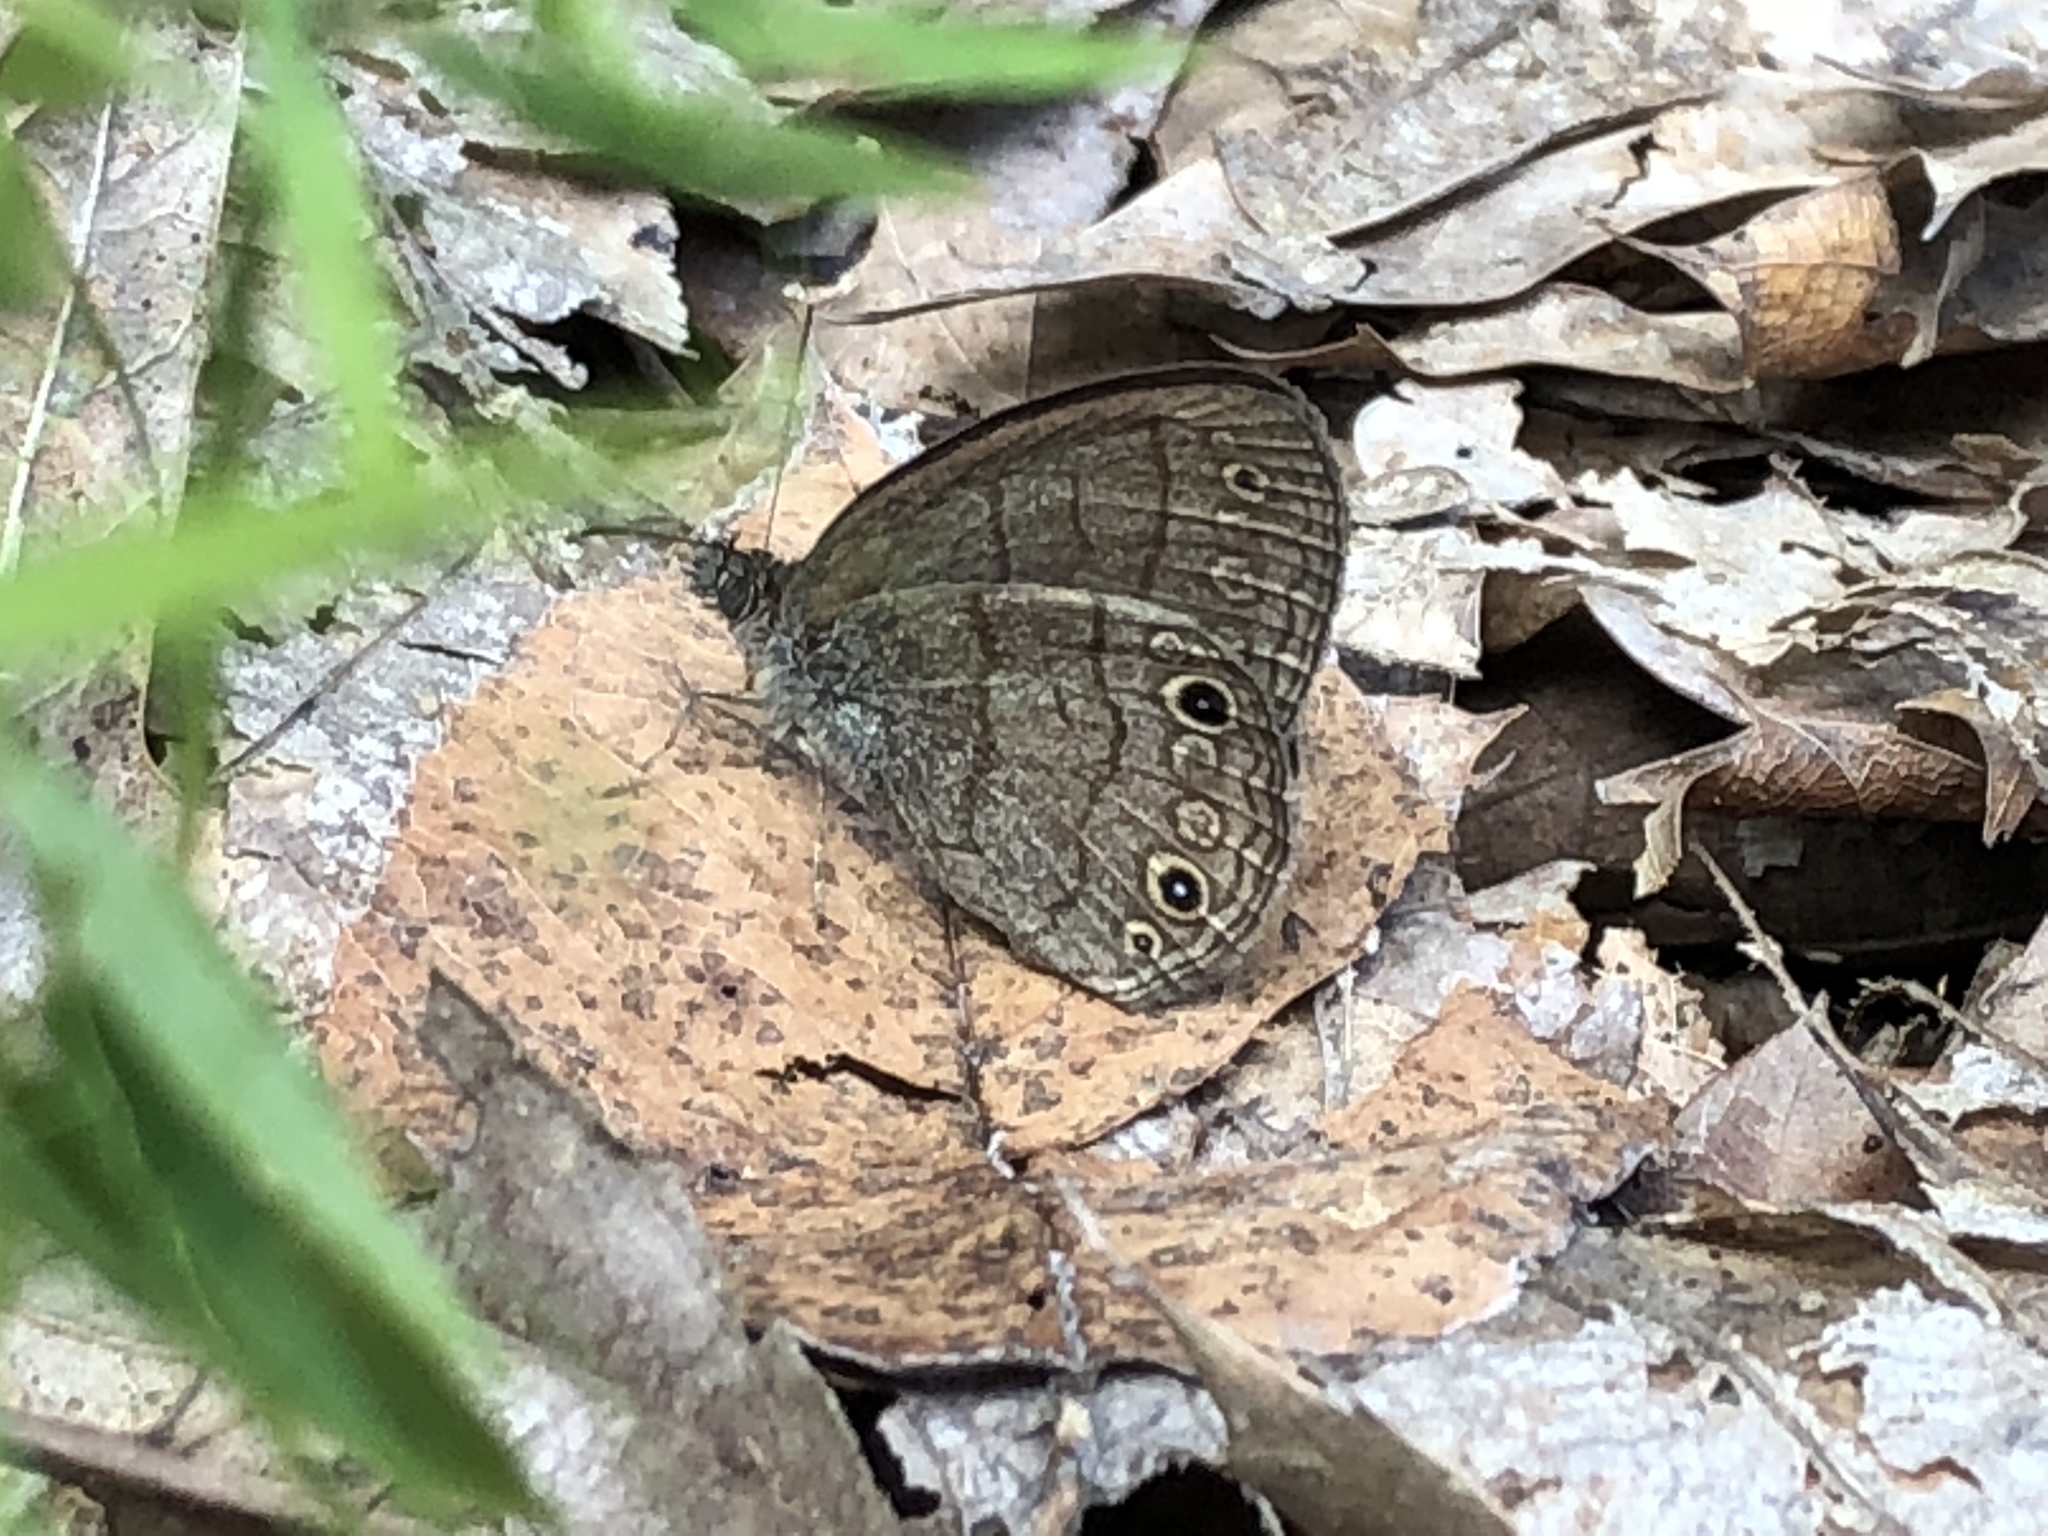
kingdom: Animalia
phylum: Arthropoda
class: Insecta
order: Lepidoptera
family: Nymphalidae
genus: Hermeuptychia
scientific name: Hermeuptychia hermes
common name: Hermes satyr
